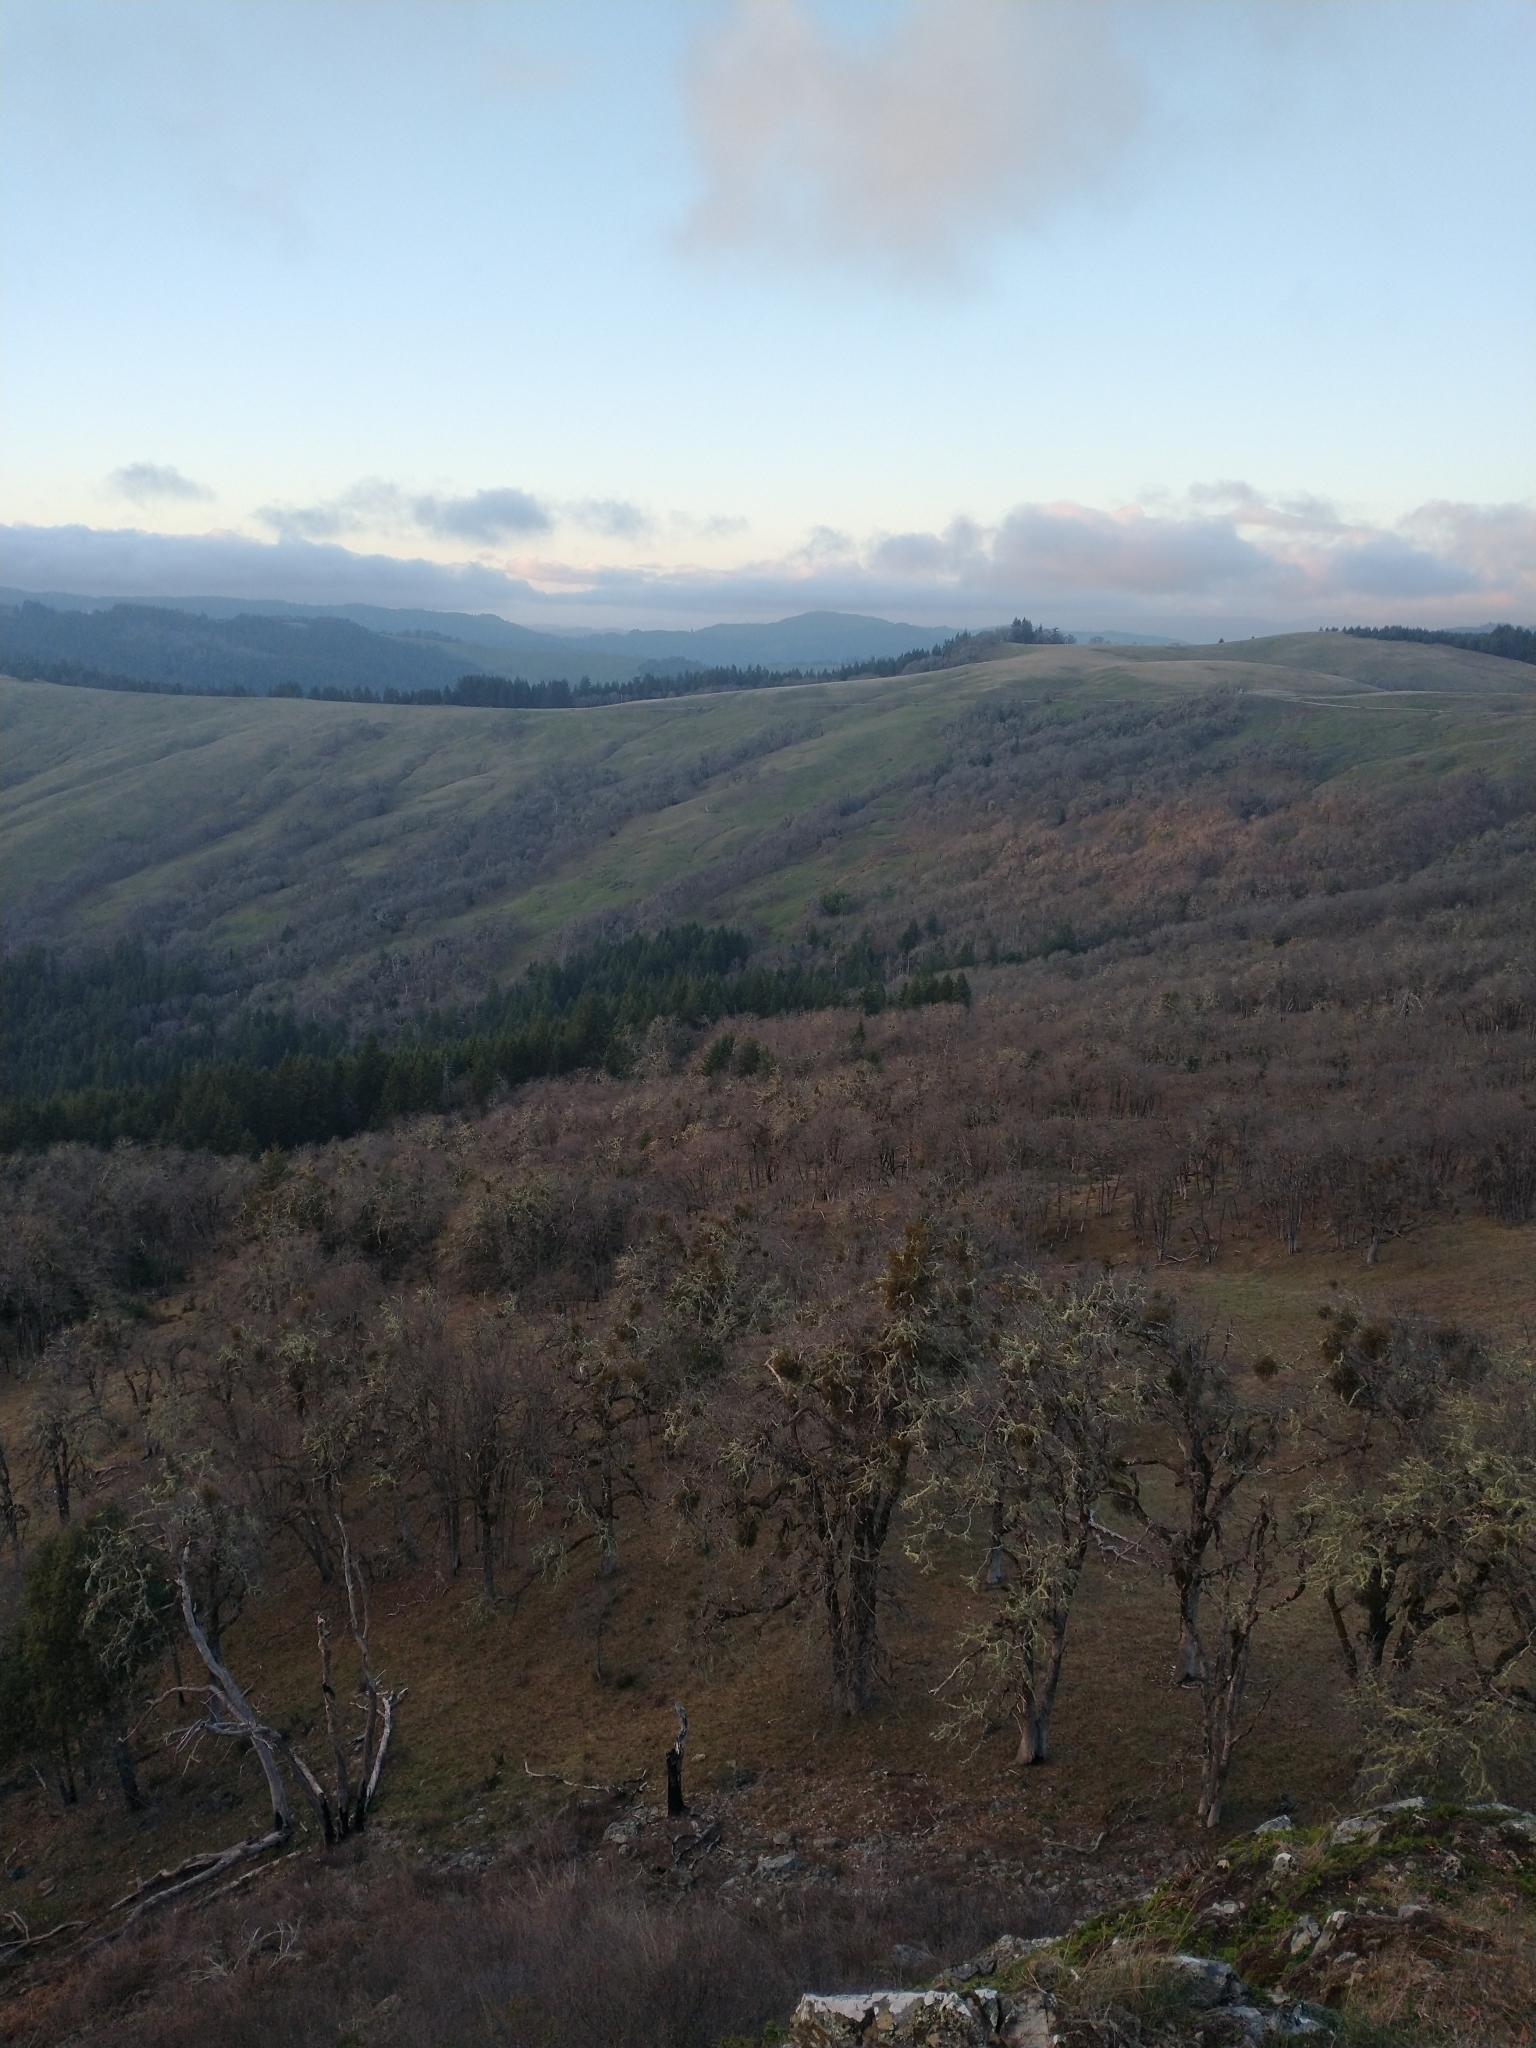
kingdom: Plantae
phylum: Tracheophyta
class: Magnoliopsida
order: Fagales
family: Fagaceae
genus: Quercus
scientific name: Quercus garryana
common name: Garry oak
